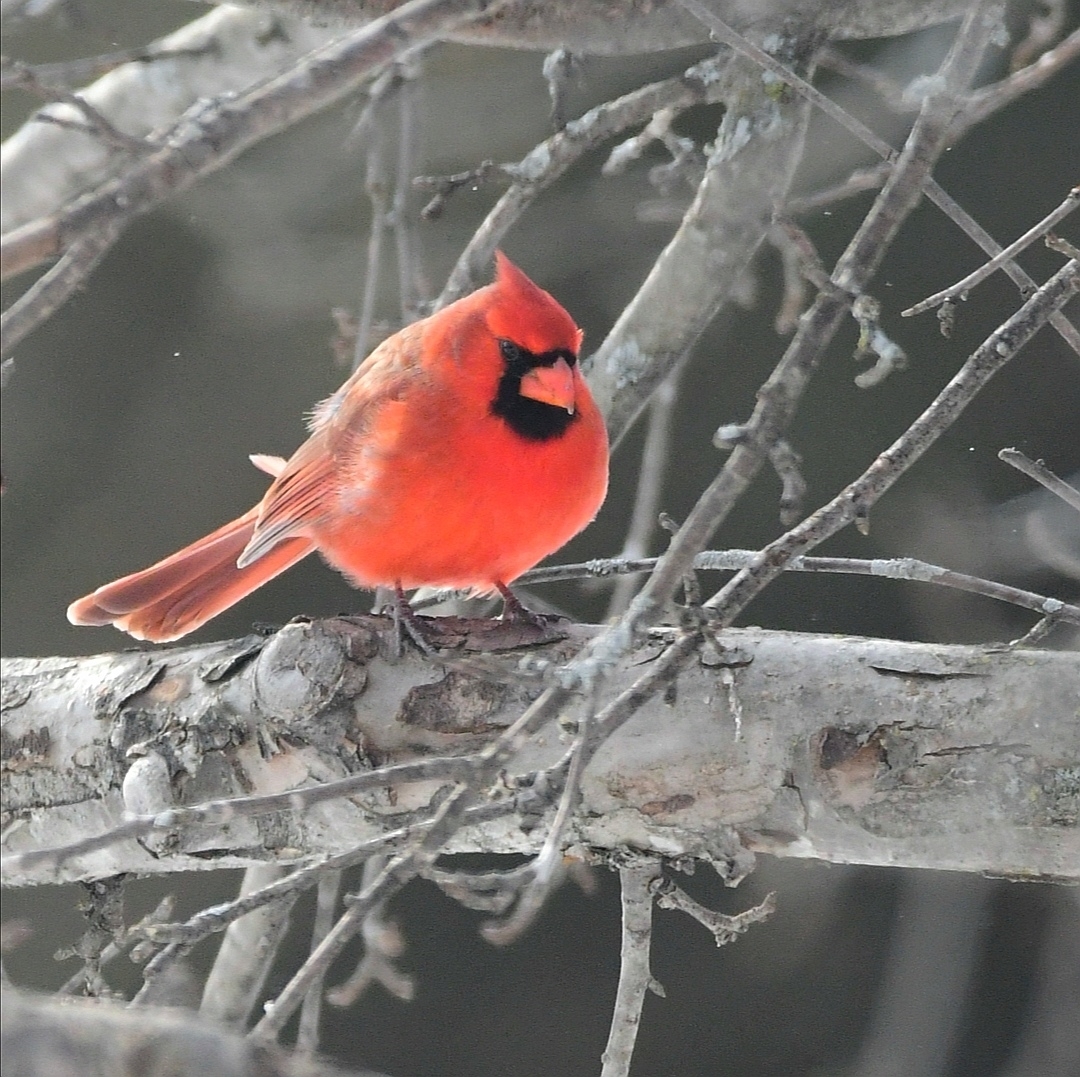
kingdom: Animalia
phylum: Chordata
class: Aves
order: Passeriformes
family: Cardinalidae
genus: Cardinalis
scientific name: Cardinalis cardinalis
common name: Northern cardinal
